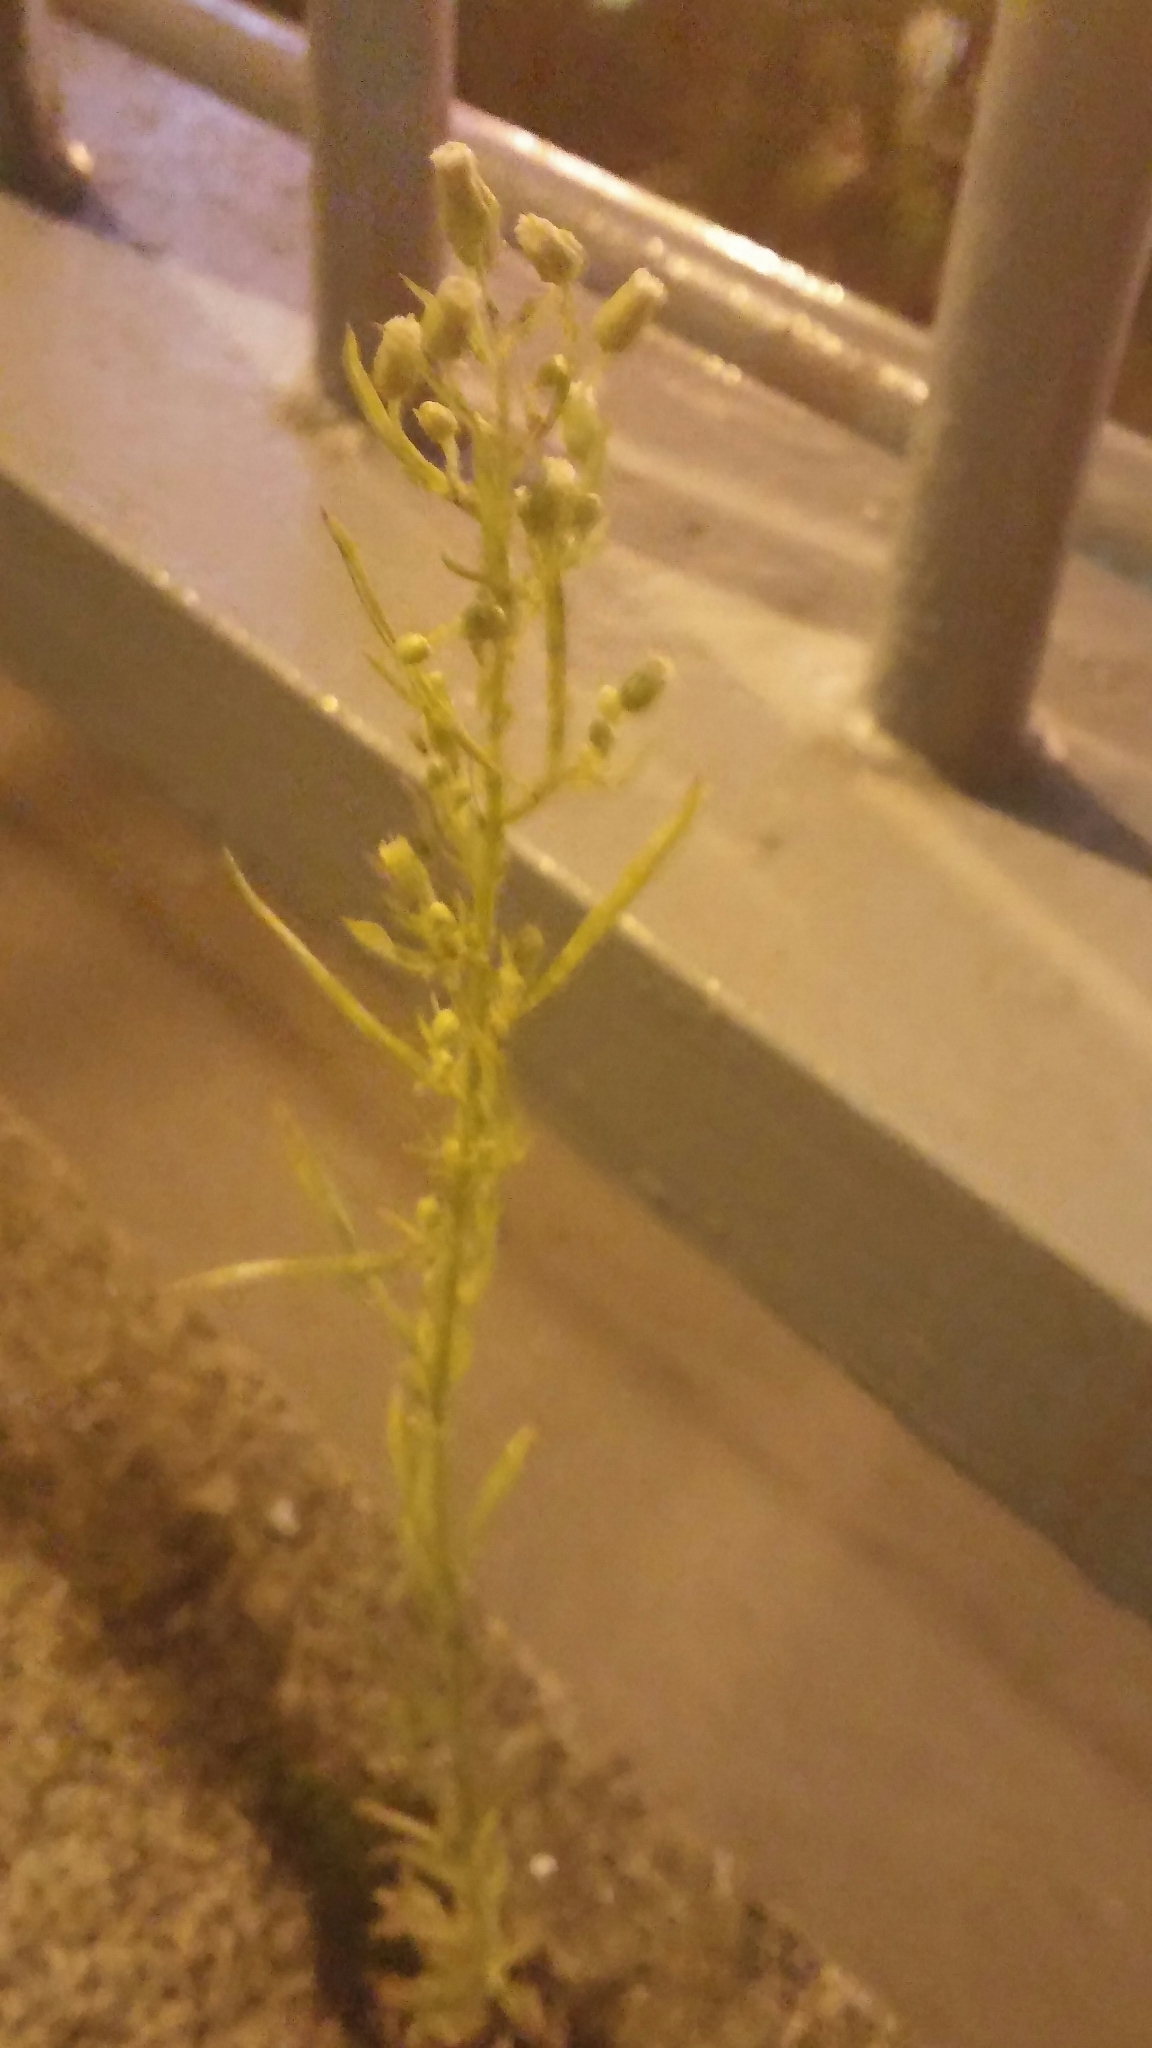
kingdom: Plantae
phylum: Tracheophyta
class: Magnoliopsida
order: Asterales
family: Asteraceae
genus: Erigeron
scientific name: Erigeron canadensis
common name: Canadian fleabane
